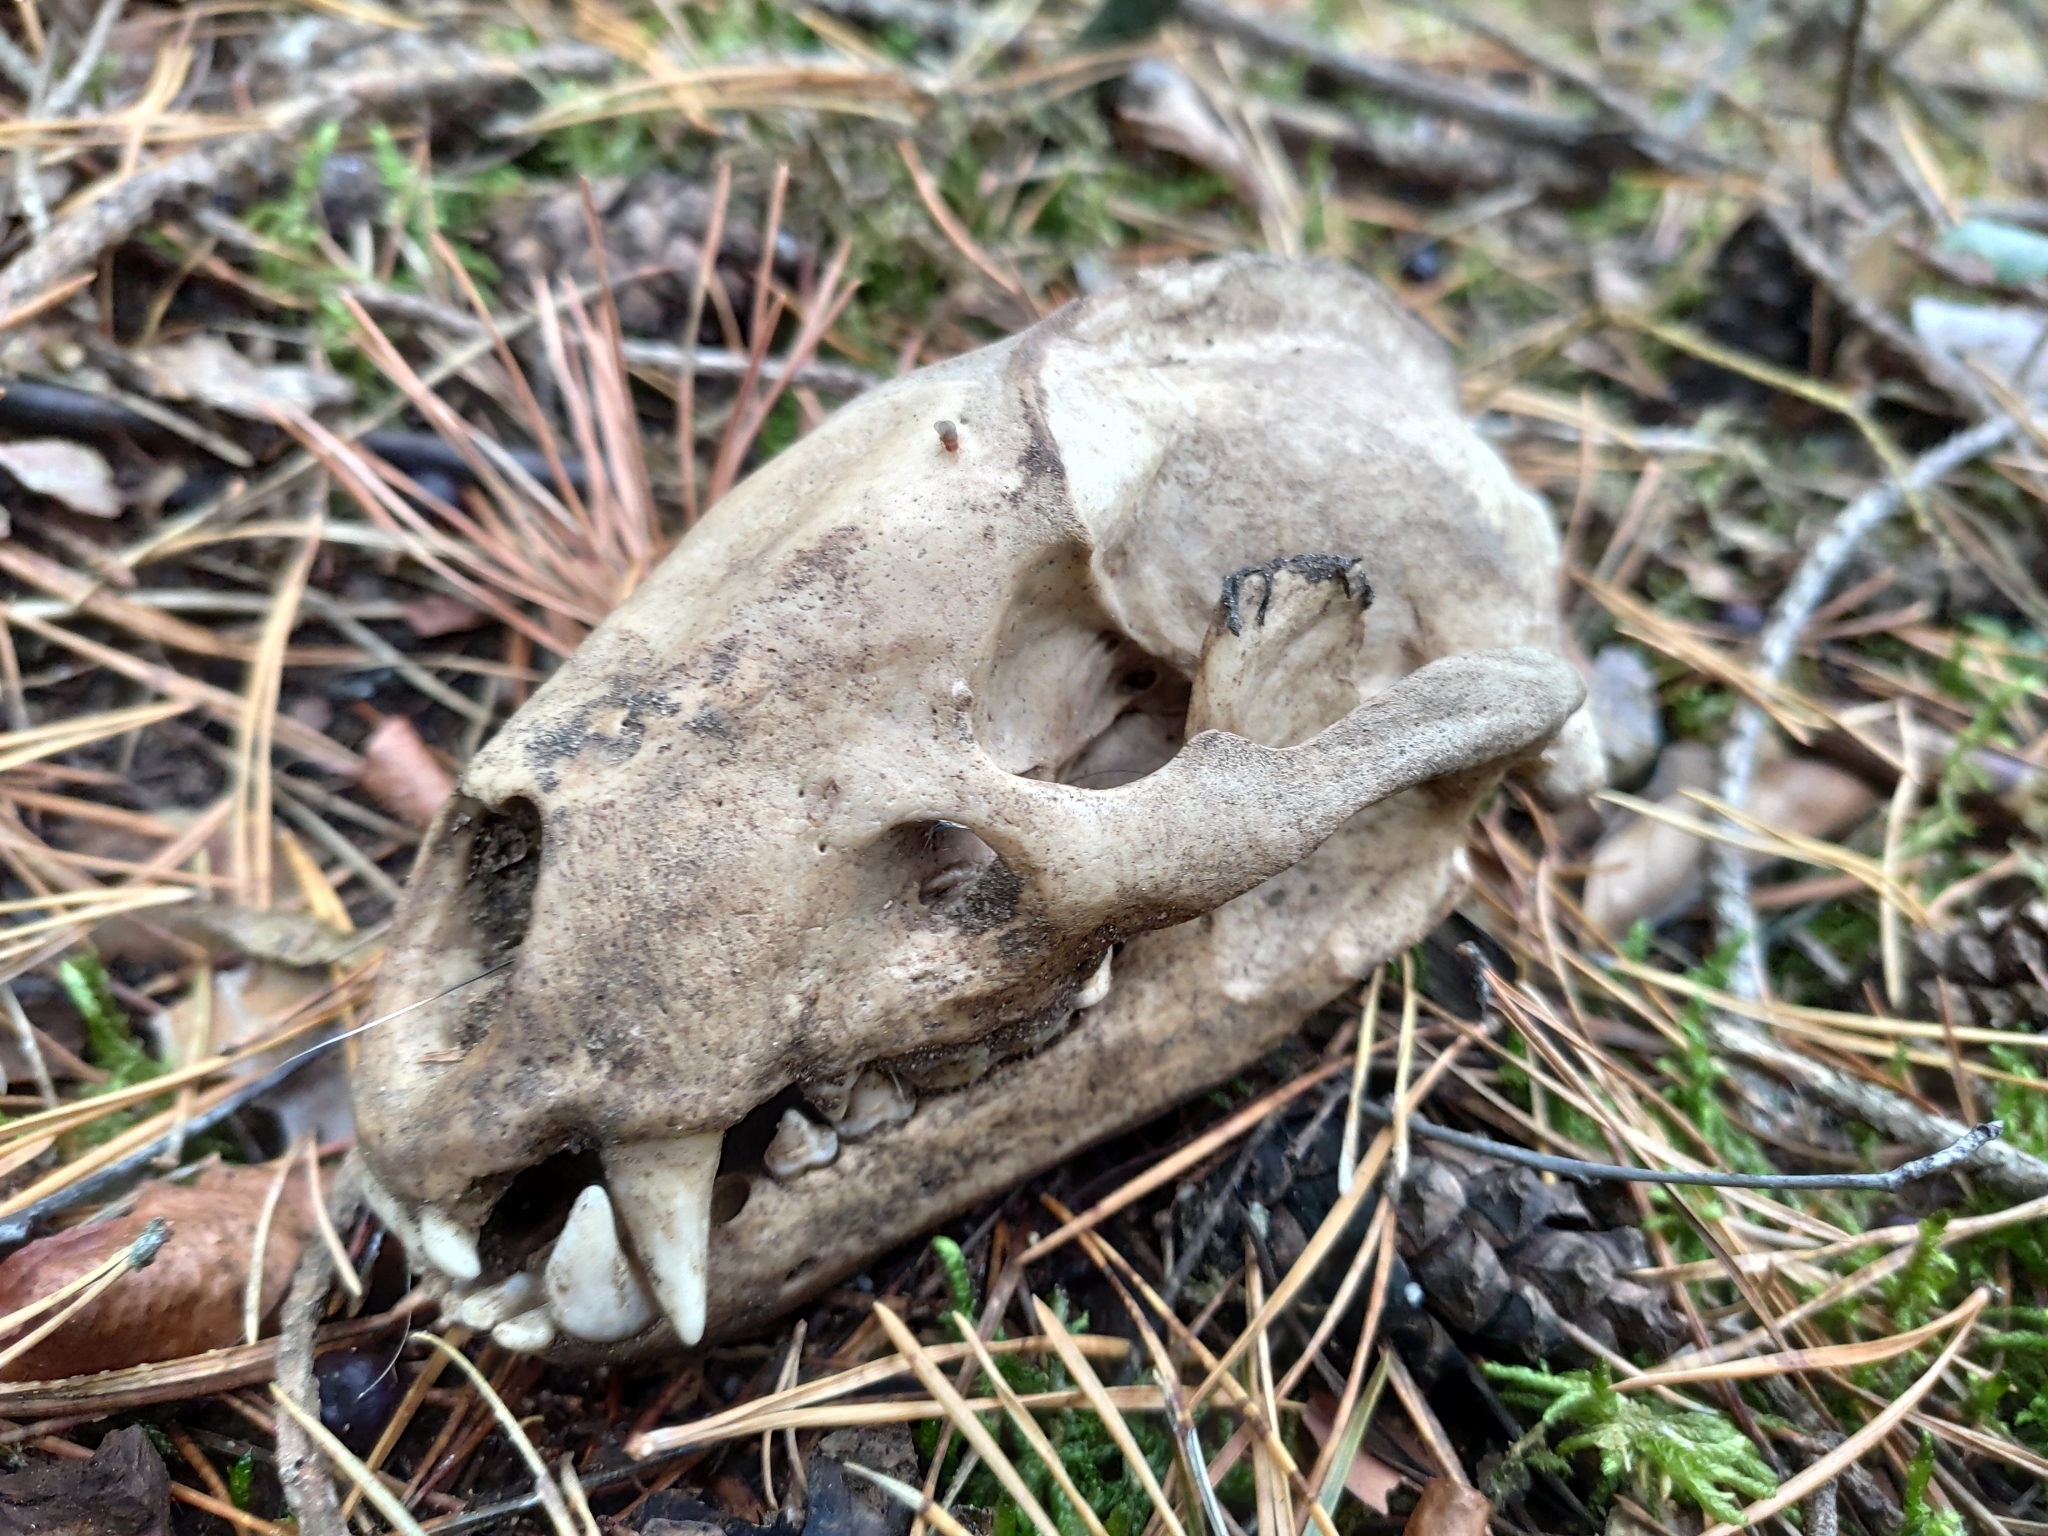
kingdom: Animalia
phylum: Chordata
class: Mammalia
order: Carnivora
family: Mustelidae
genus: Meles
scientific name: Meles meles
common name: Eurasian badger
